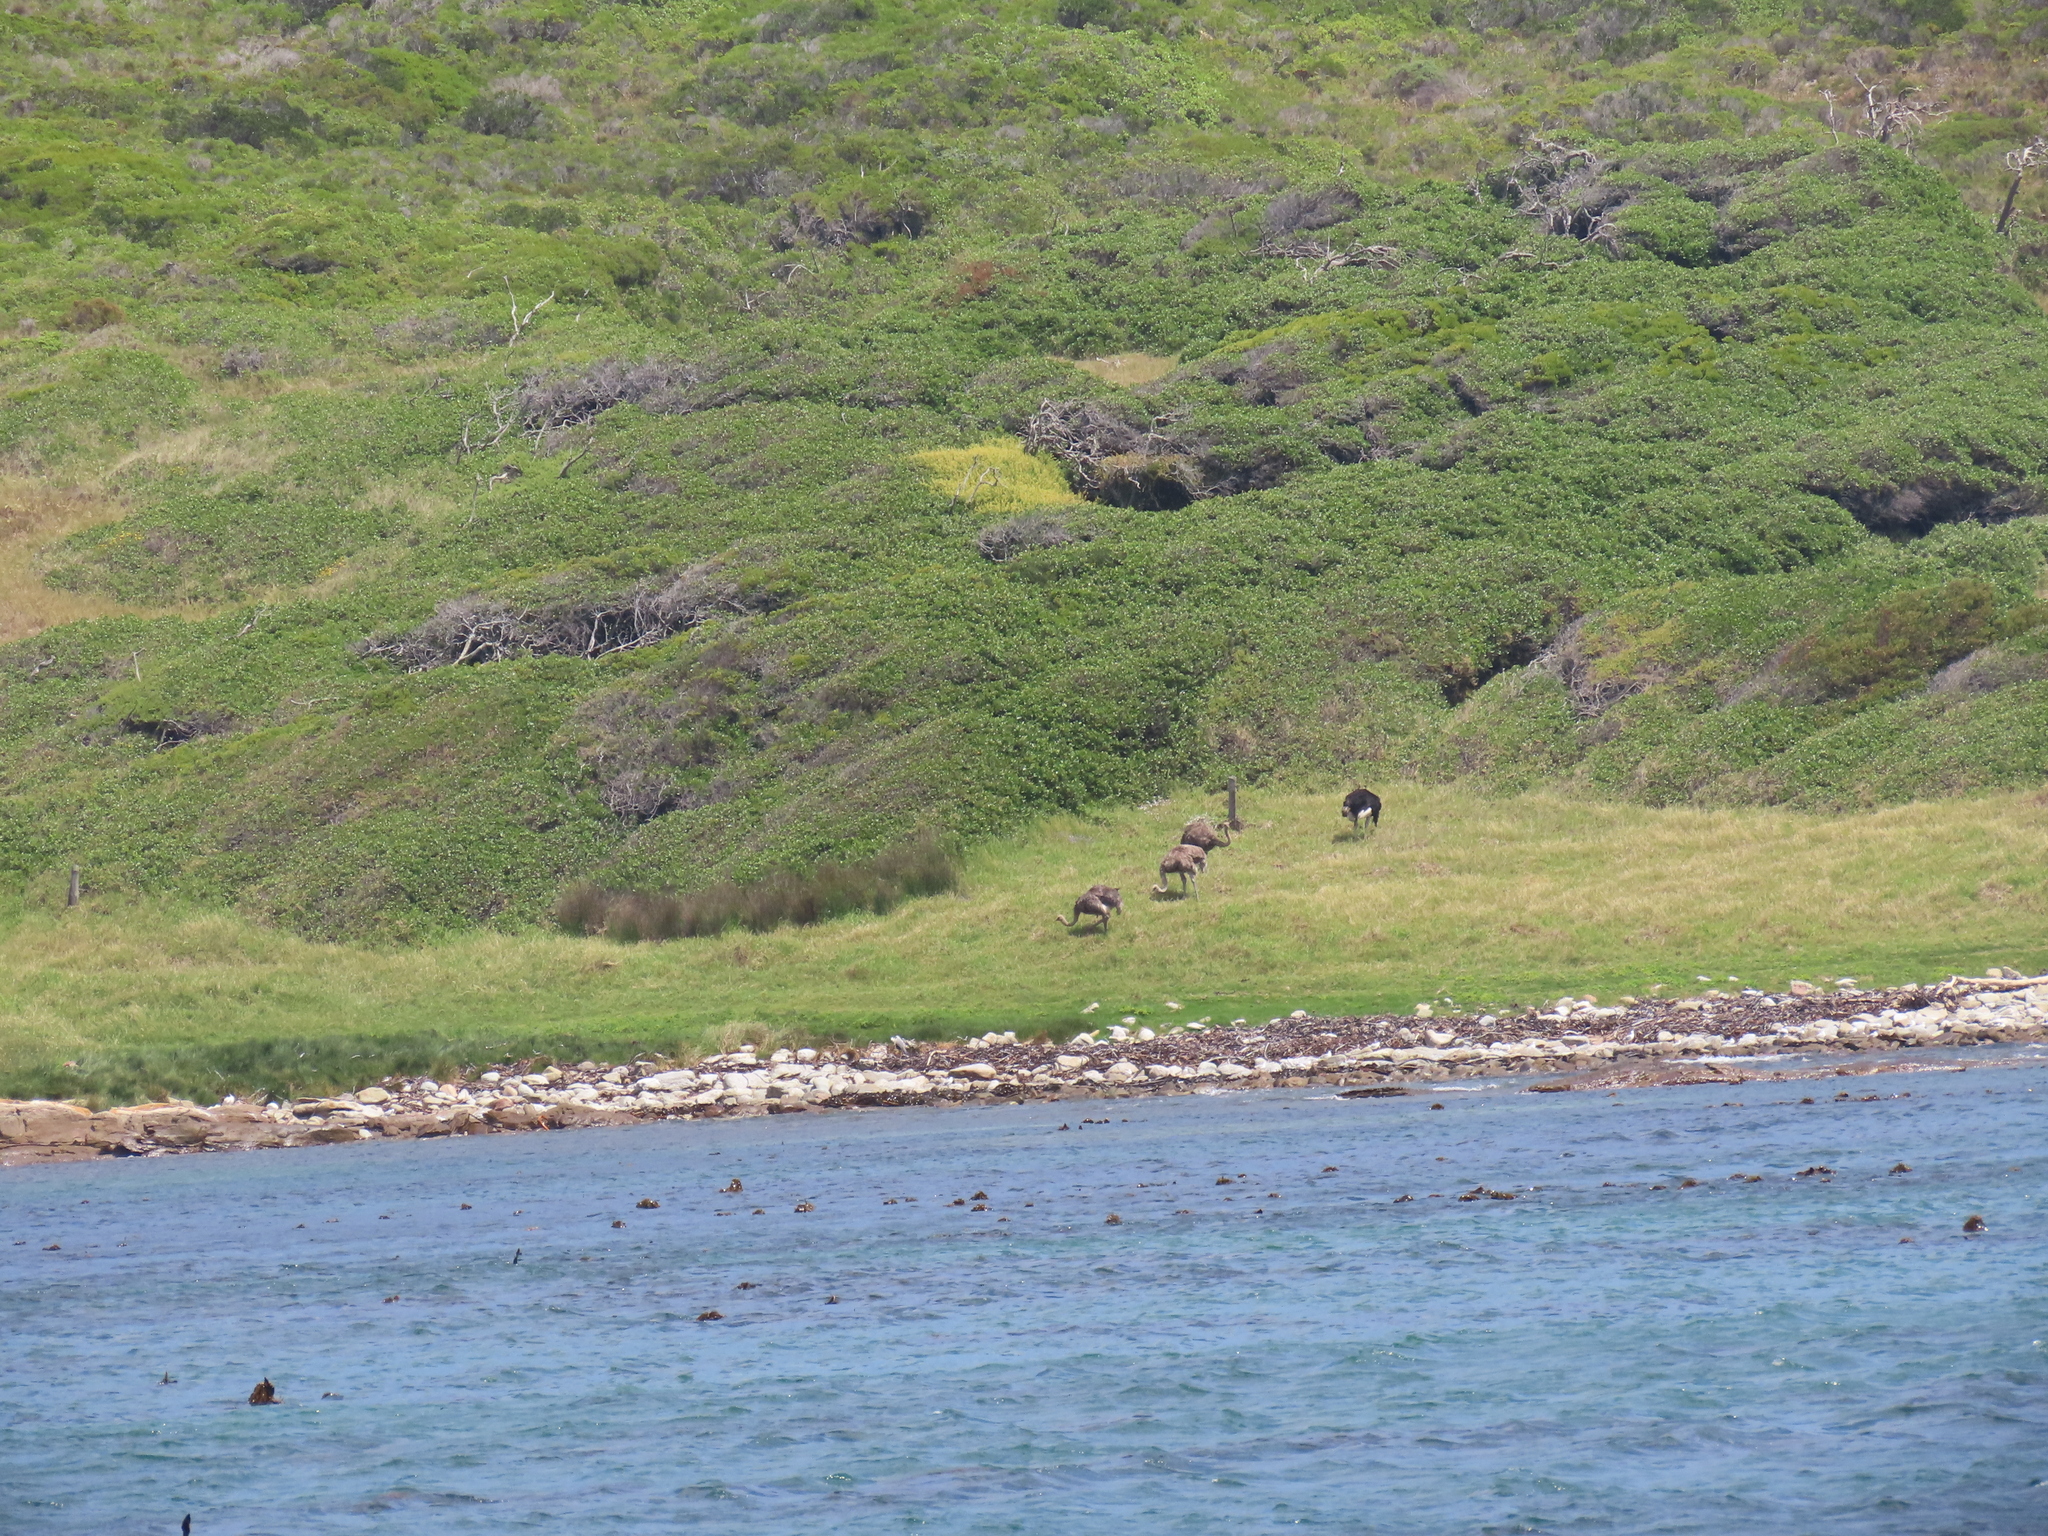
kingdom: Animalia
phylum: Chordata
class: Aves
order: Struthioniformes
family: Struthionidae
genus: Struthio
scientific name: Struthio camelus
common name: Common ostrich
